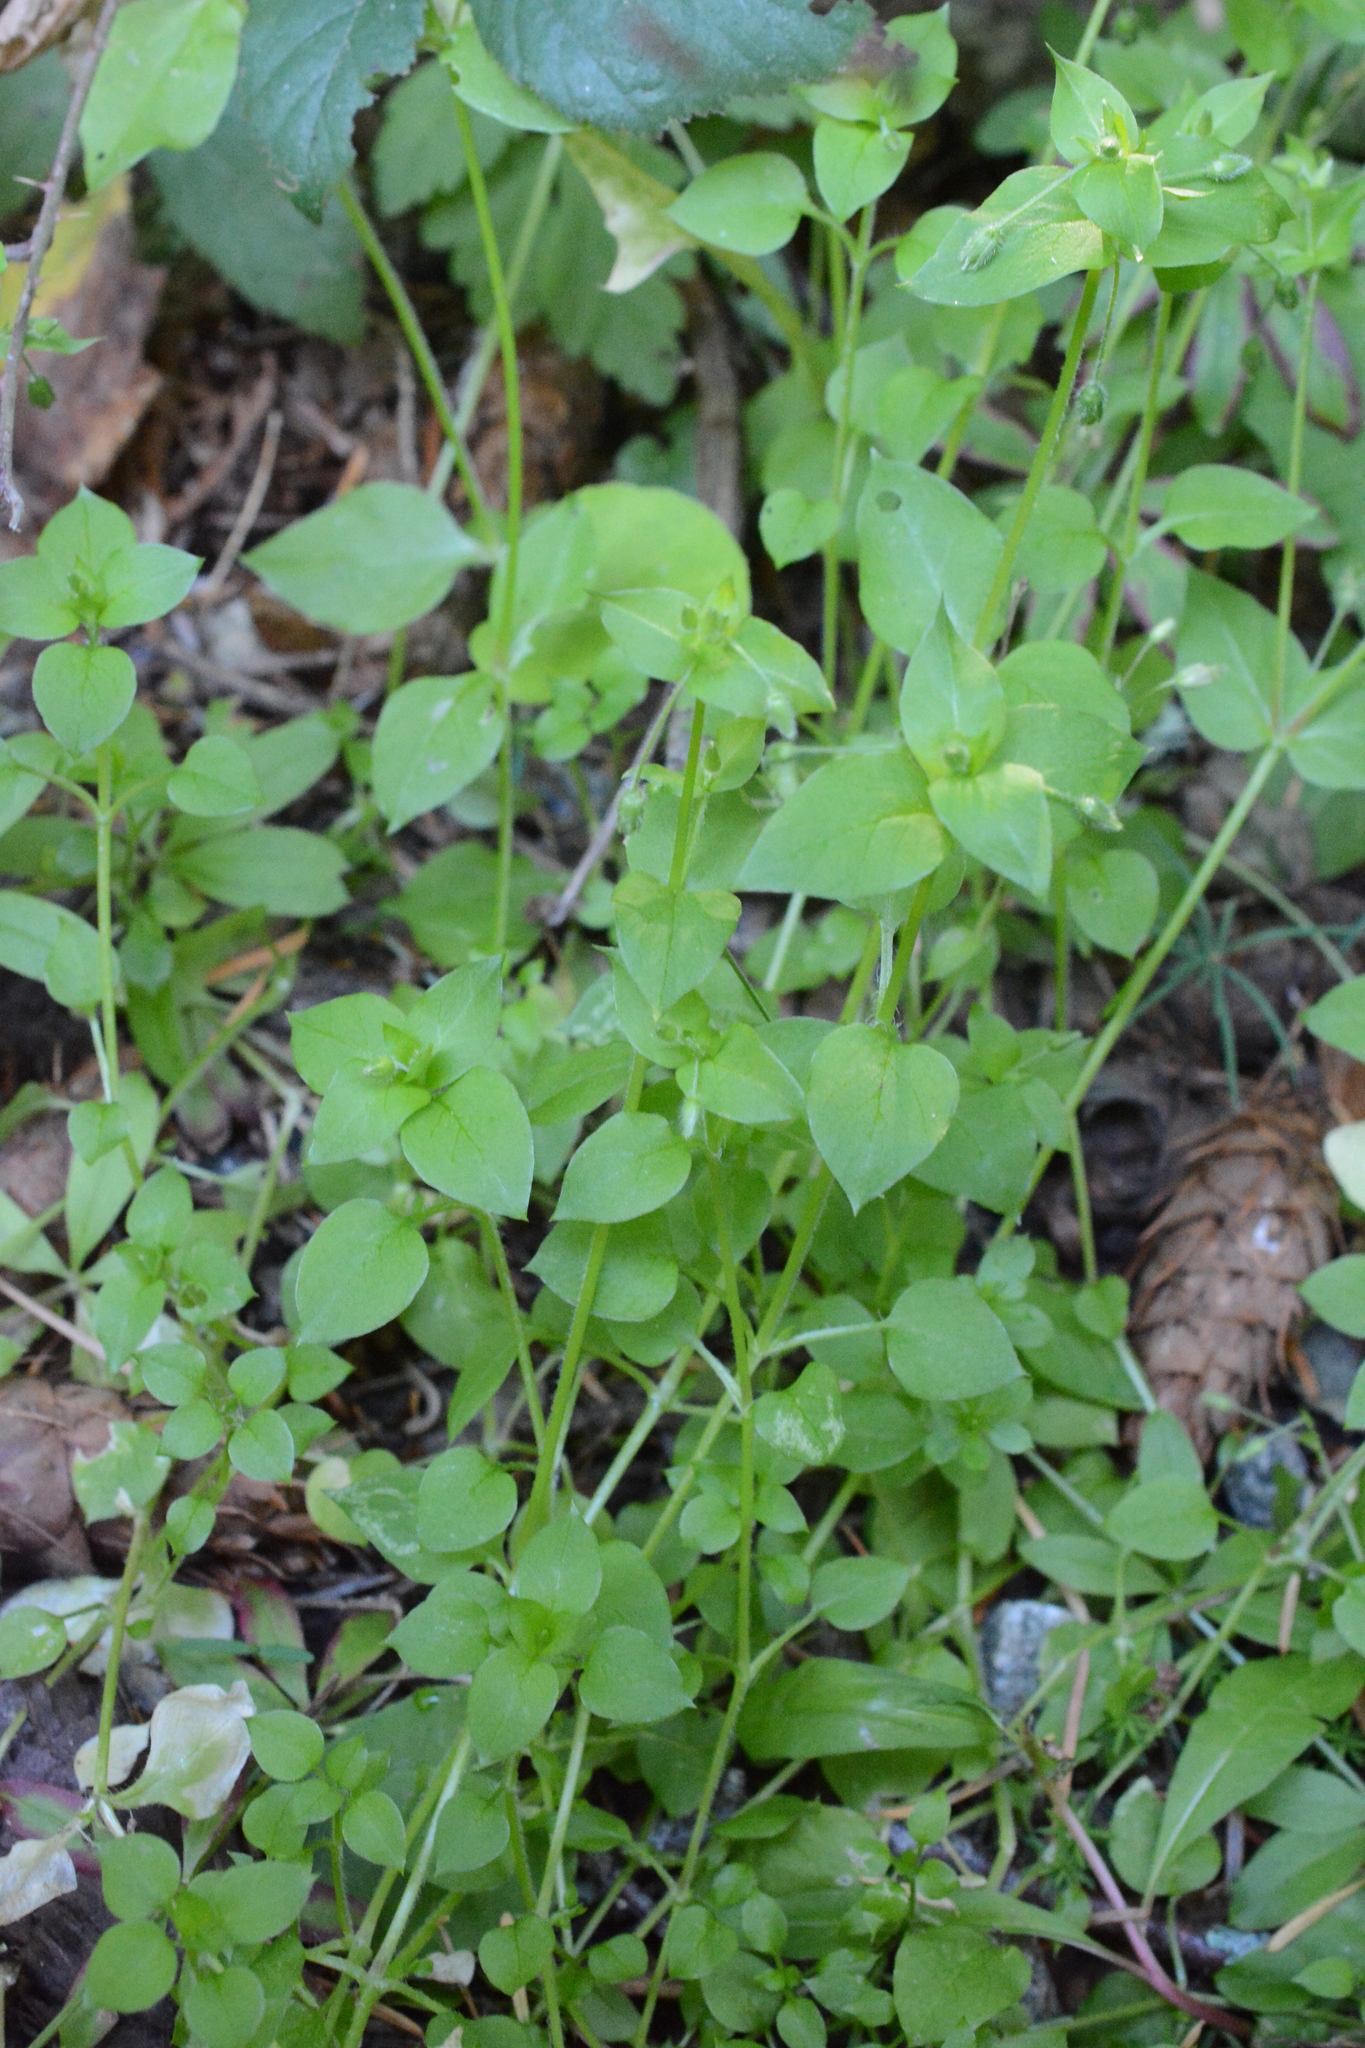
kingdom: Plantae
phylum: Tracheophyta
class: Magnoliopsida
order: Caryophyllales
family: Caryophyllaceae
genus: Stellaria
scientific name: Stellaria media
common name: Common chickweed
